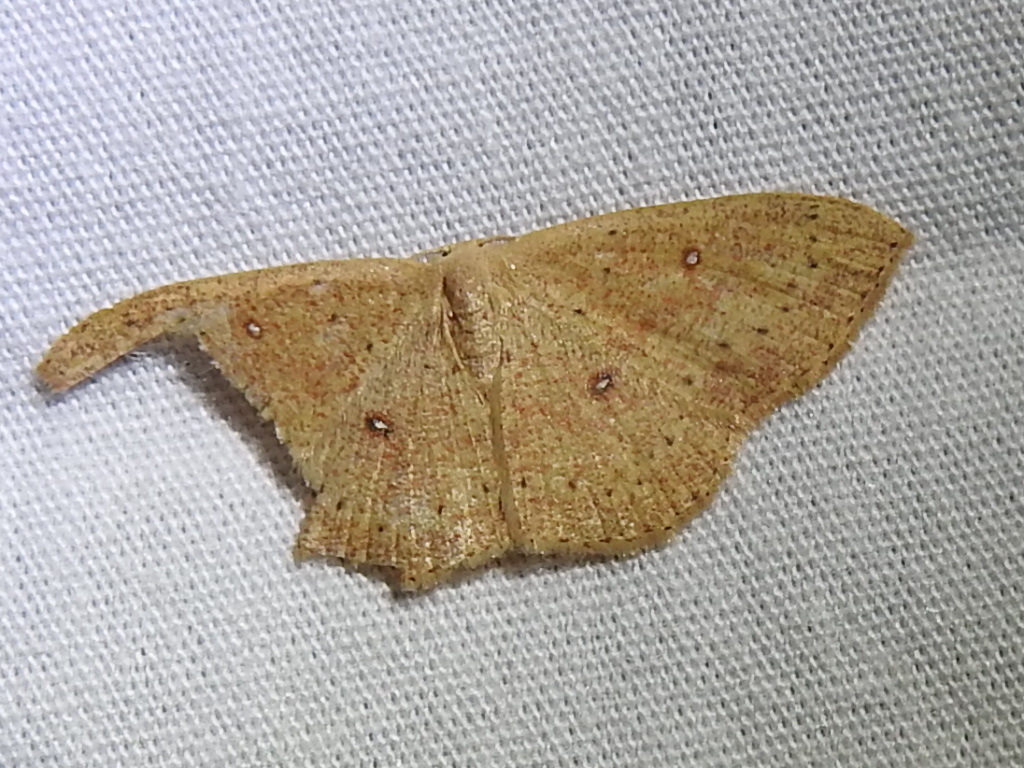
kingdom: Animalia
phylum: Arthropoda
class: Insecta
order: Lepidoptera
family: Geometridae
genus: Cyclophora
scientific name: Cyclophora packardi
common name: Packard's wave
